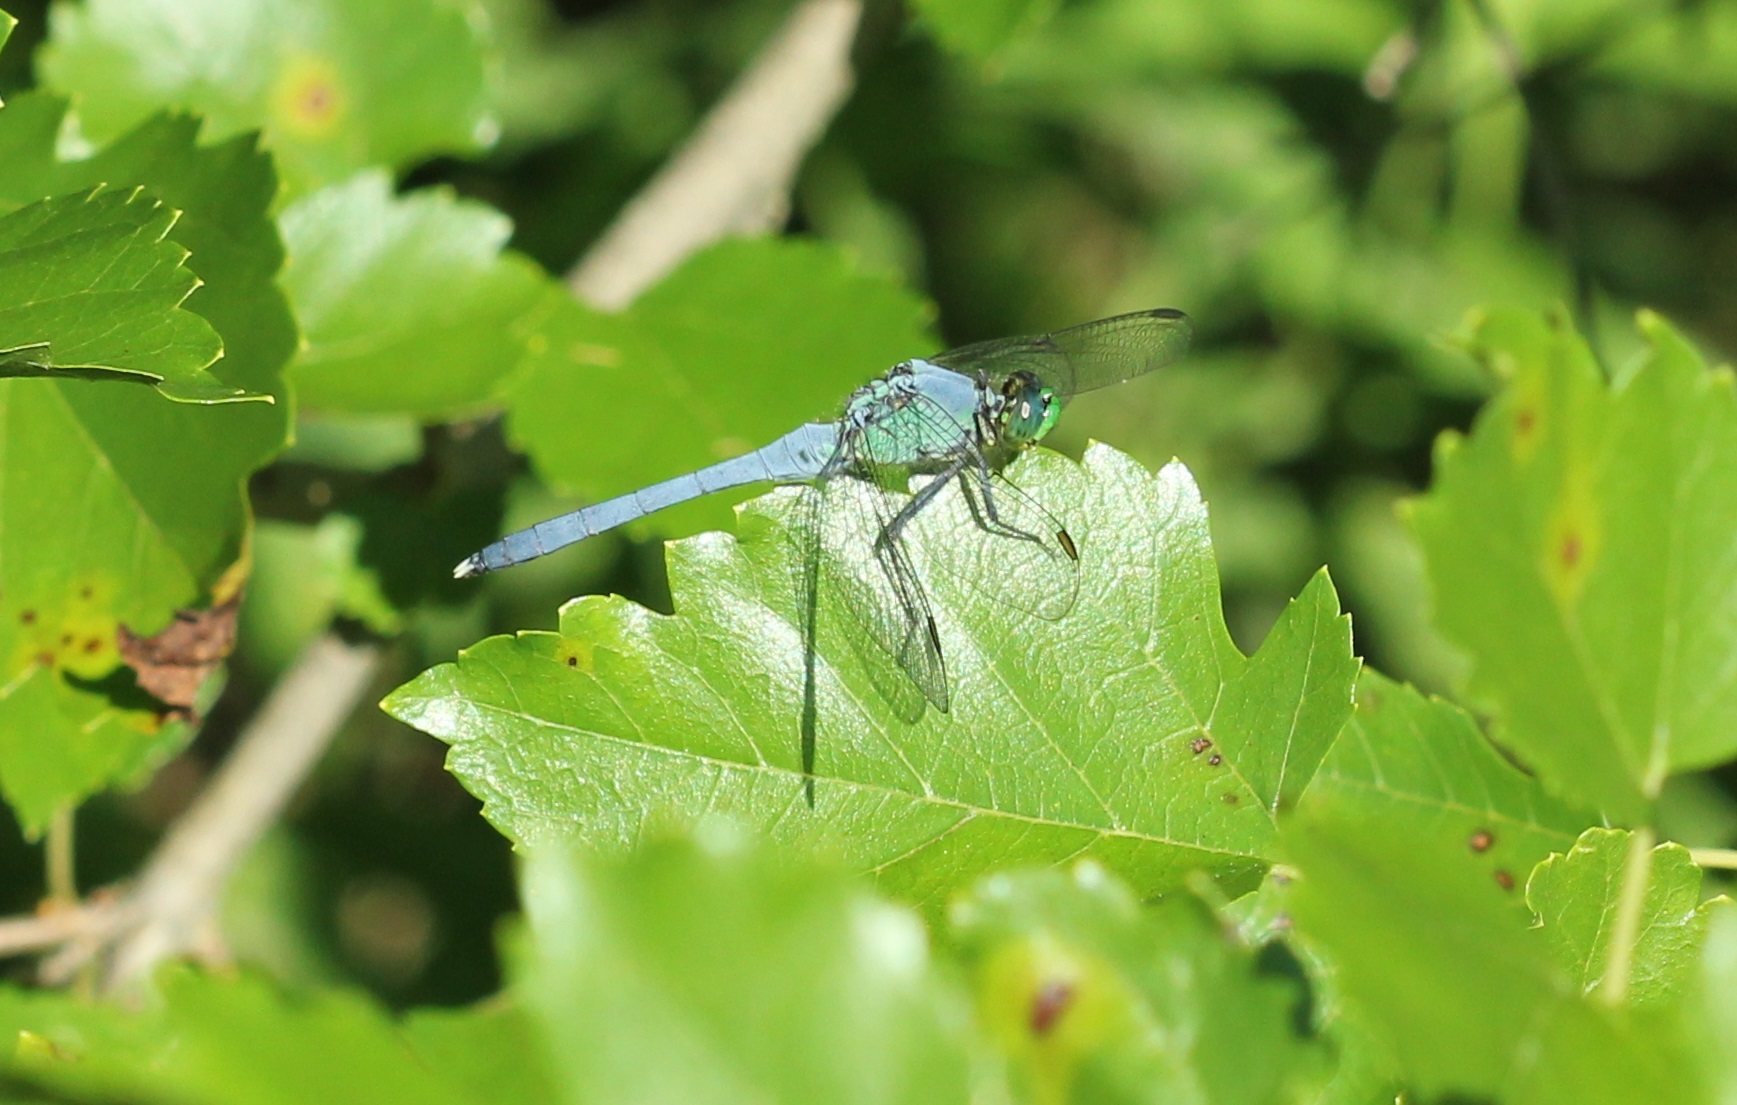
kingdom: Animalia
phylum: Arthropoda
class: Insecta
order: Odonata
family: Libellulidae
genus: Erythemis
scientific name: Erythemis simplicicollis
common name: Eastern pondhawk
